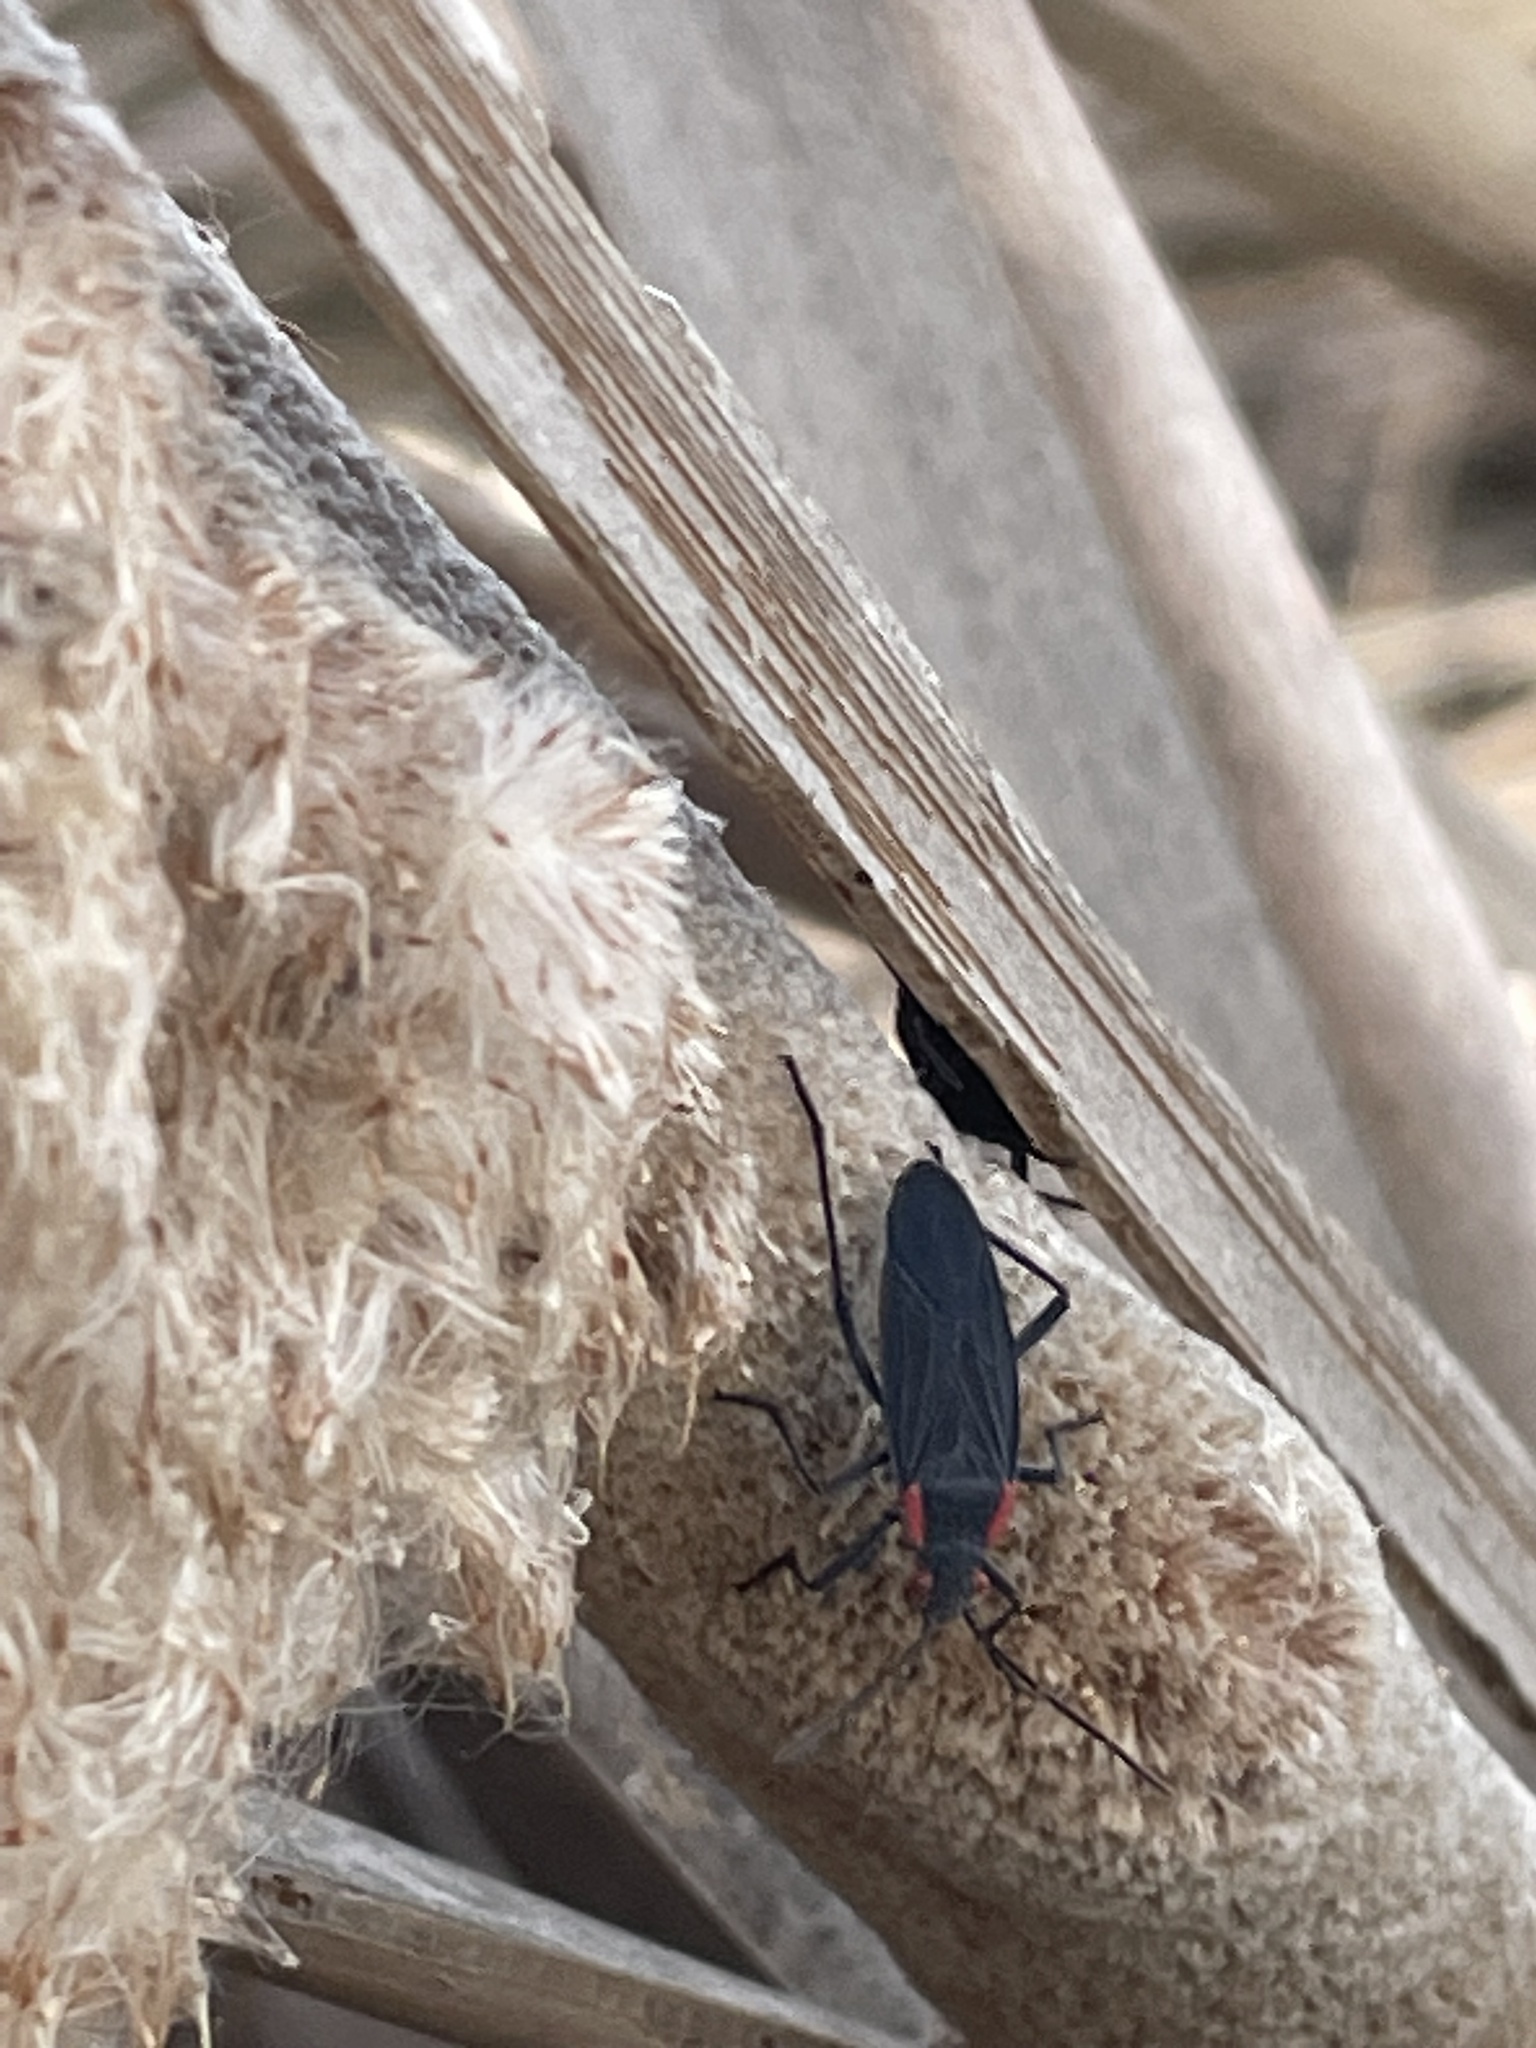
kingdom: Animalia
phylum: Arthropoda
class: Insecta
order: Hemiptera
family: Rhopalidae
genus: Jadera
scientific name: Jadera haematoloma
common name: Red-shouldered bug
